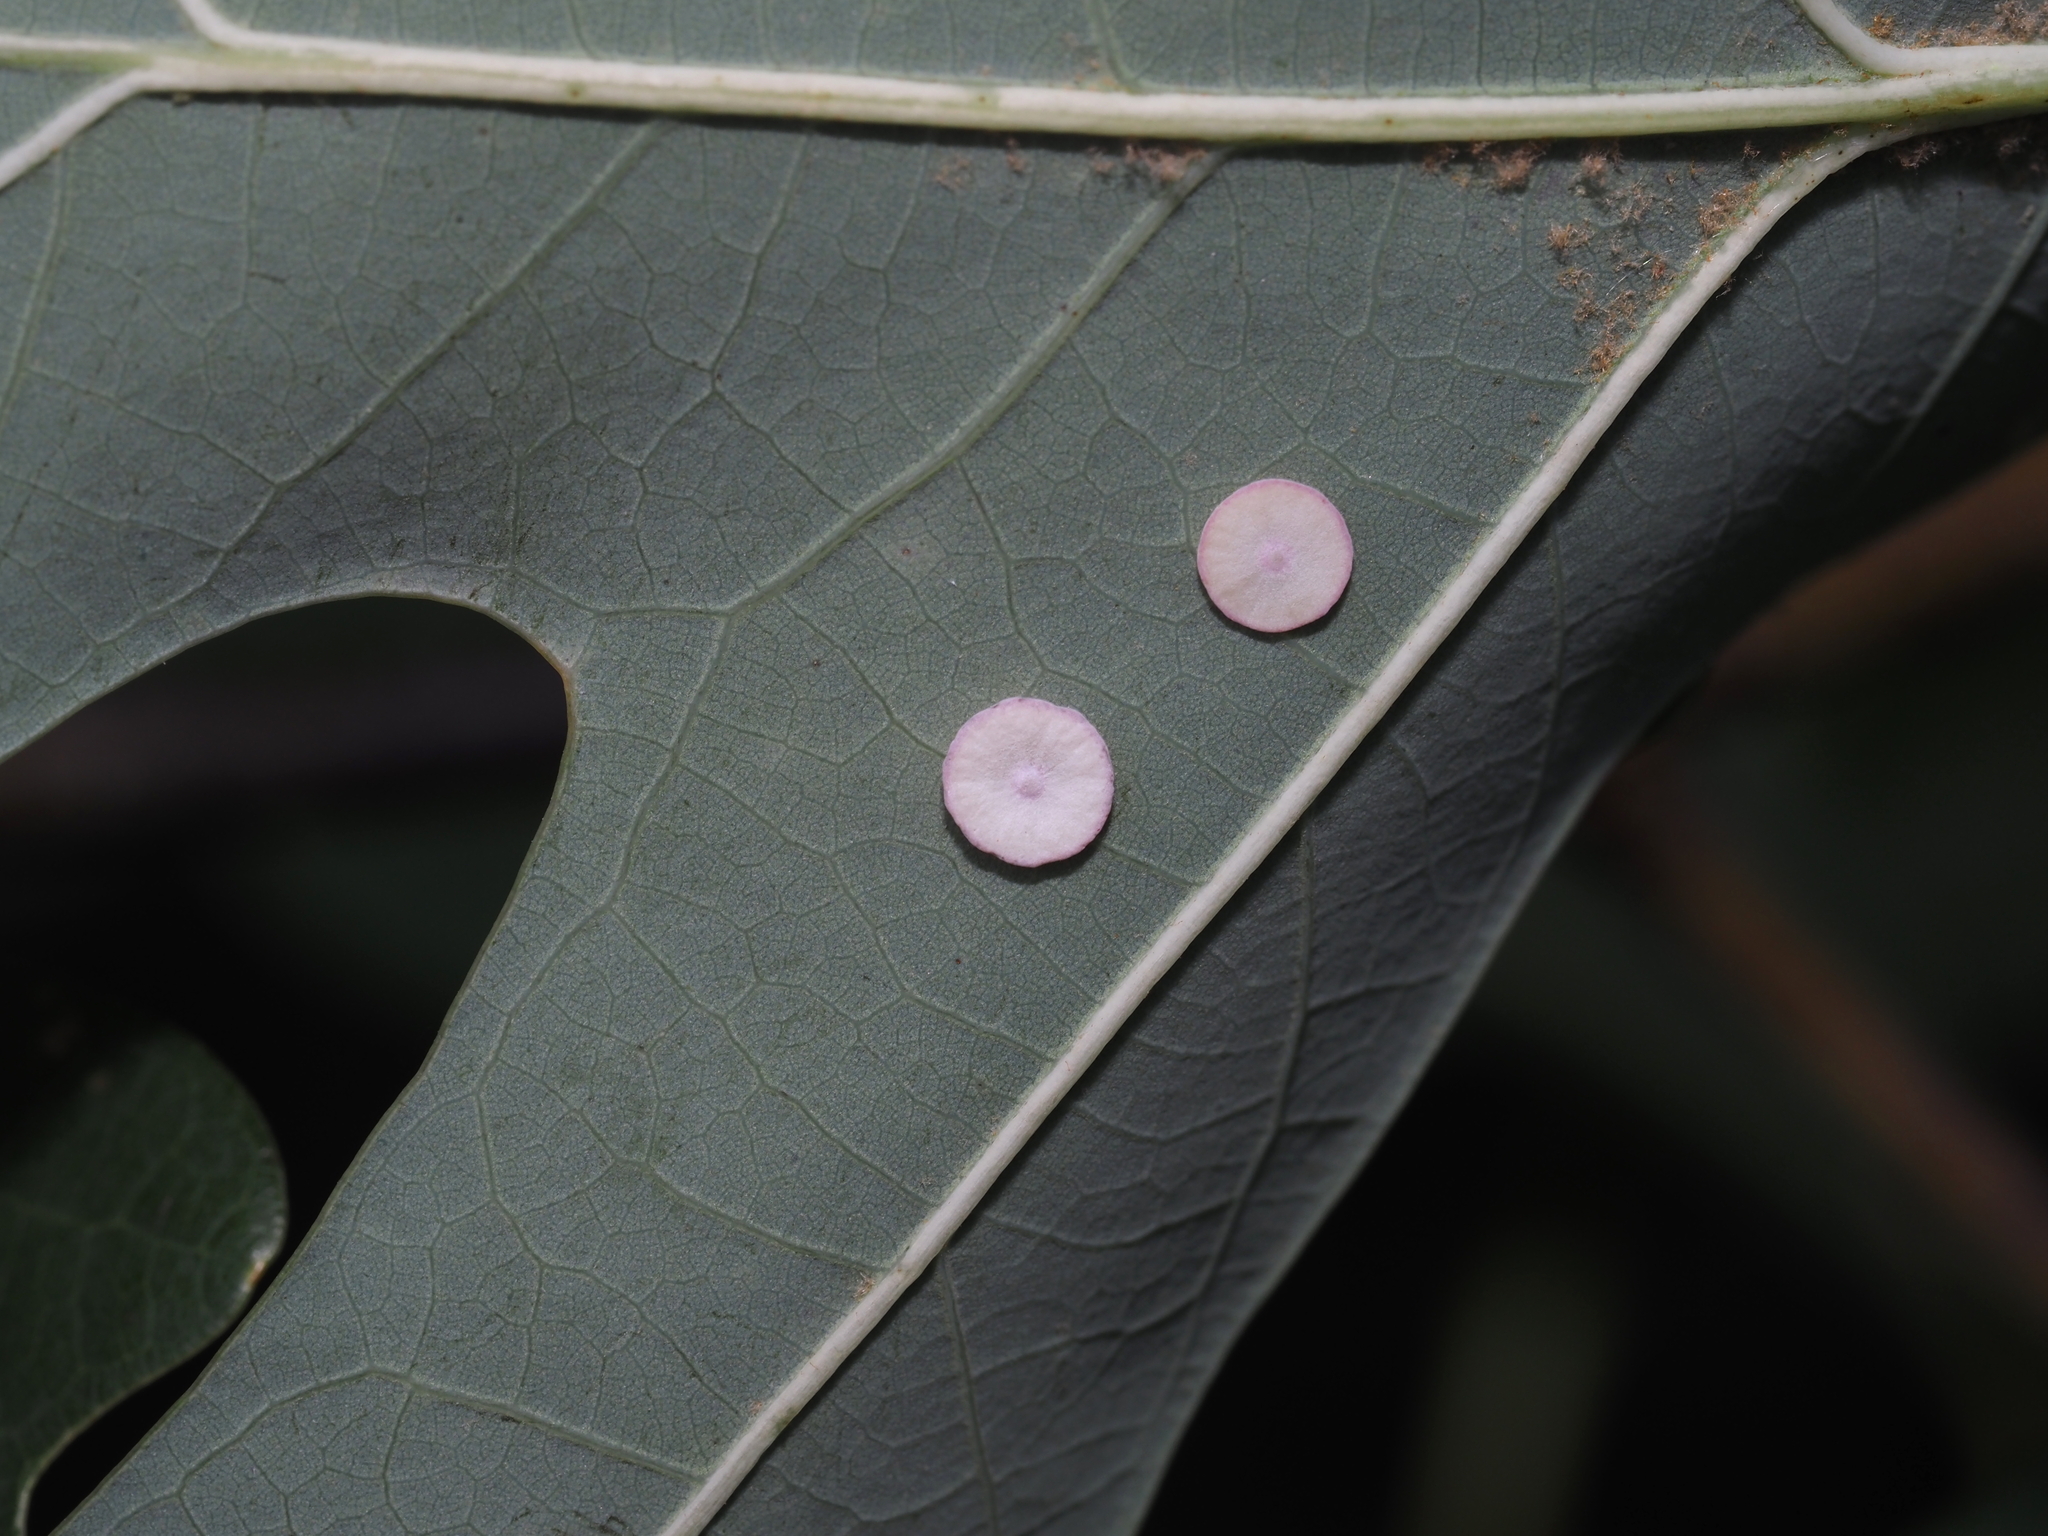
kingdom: Animalia
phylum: Arthropoda
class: Insecta
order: Hymenoptera
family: Cynipidae
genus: Phylloteras
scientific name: Phylloteras poculum
